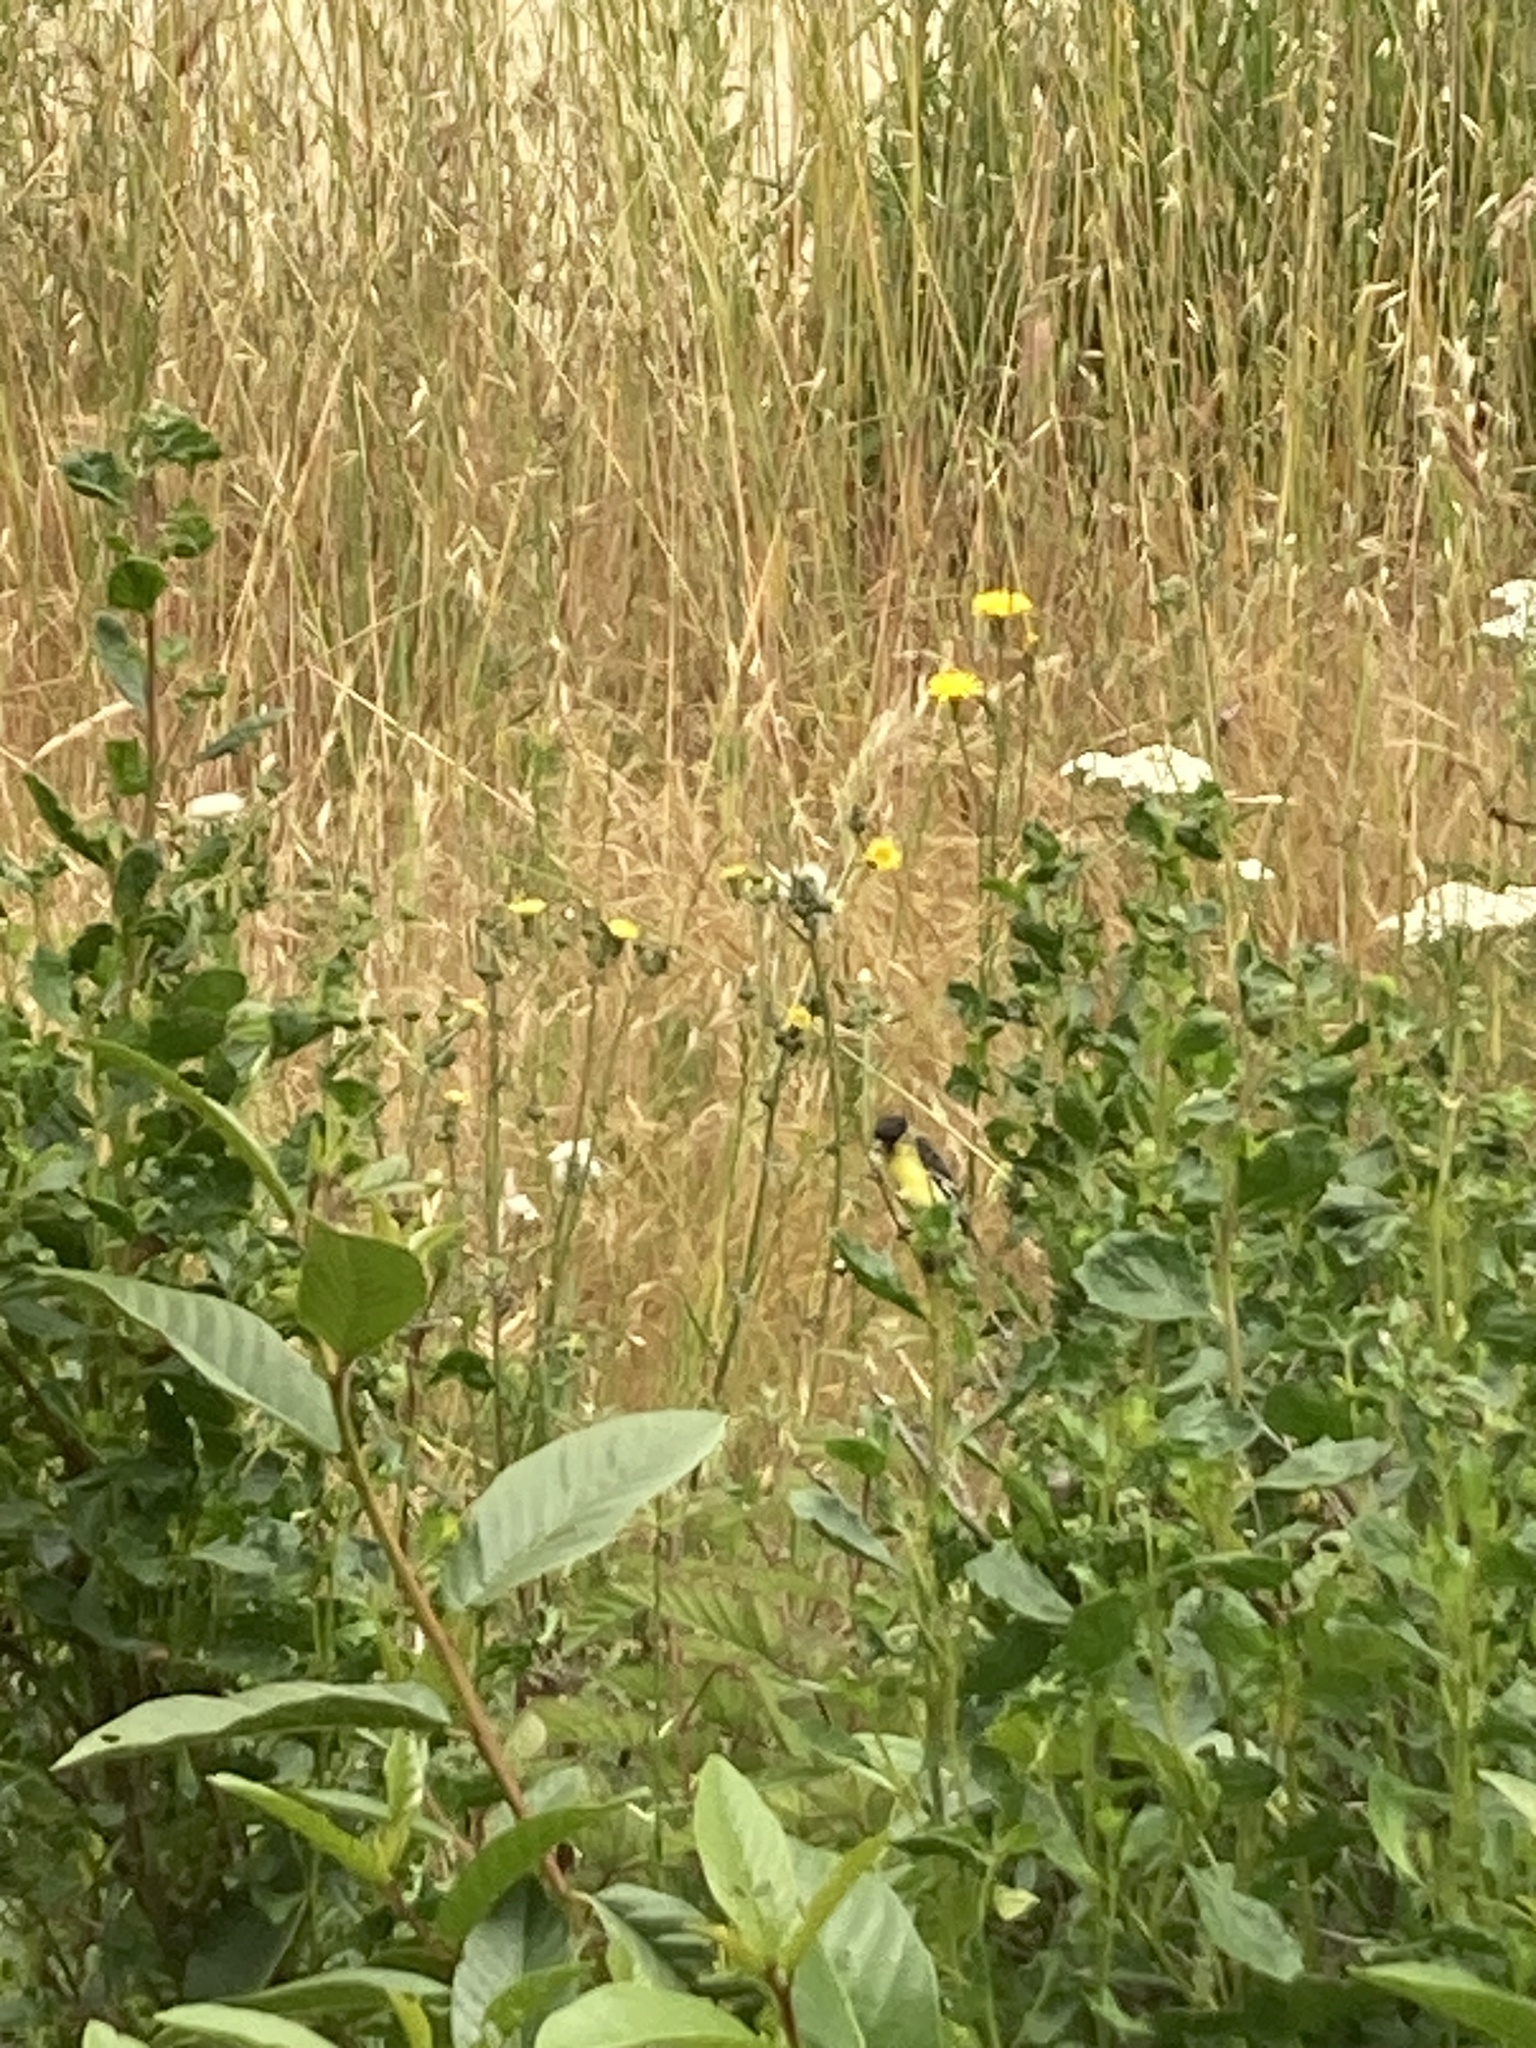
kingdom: Animalia
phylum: Chordata
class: Aves
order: Passeriformes
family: Fringillidae
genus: Spinus
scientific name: Spinus psaltria
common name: Lesser goldfinch
